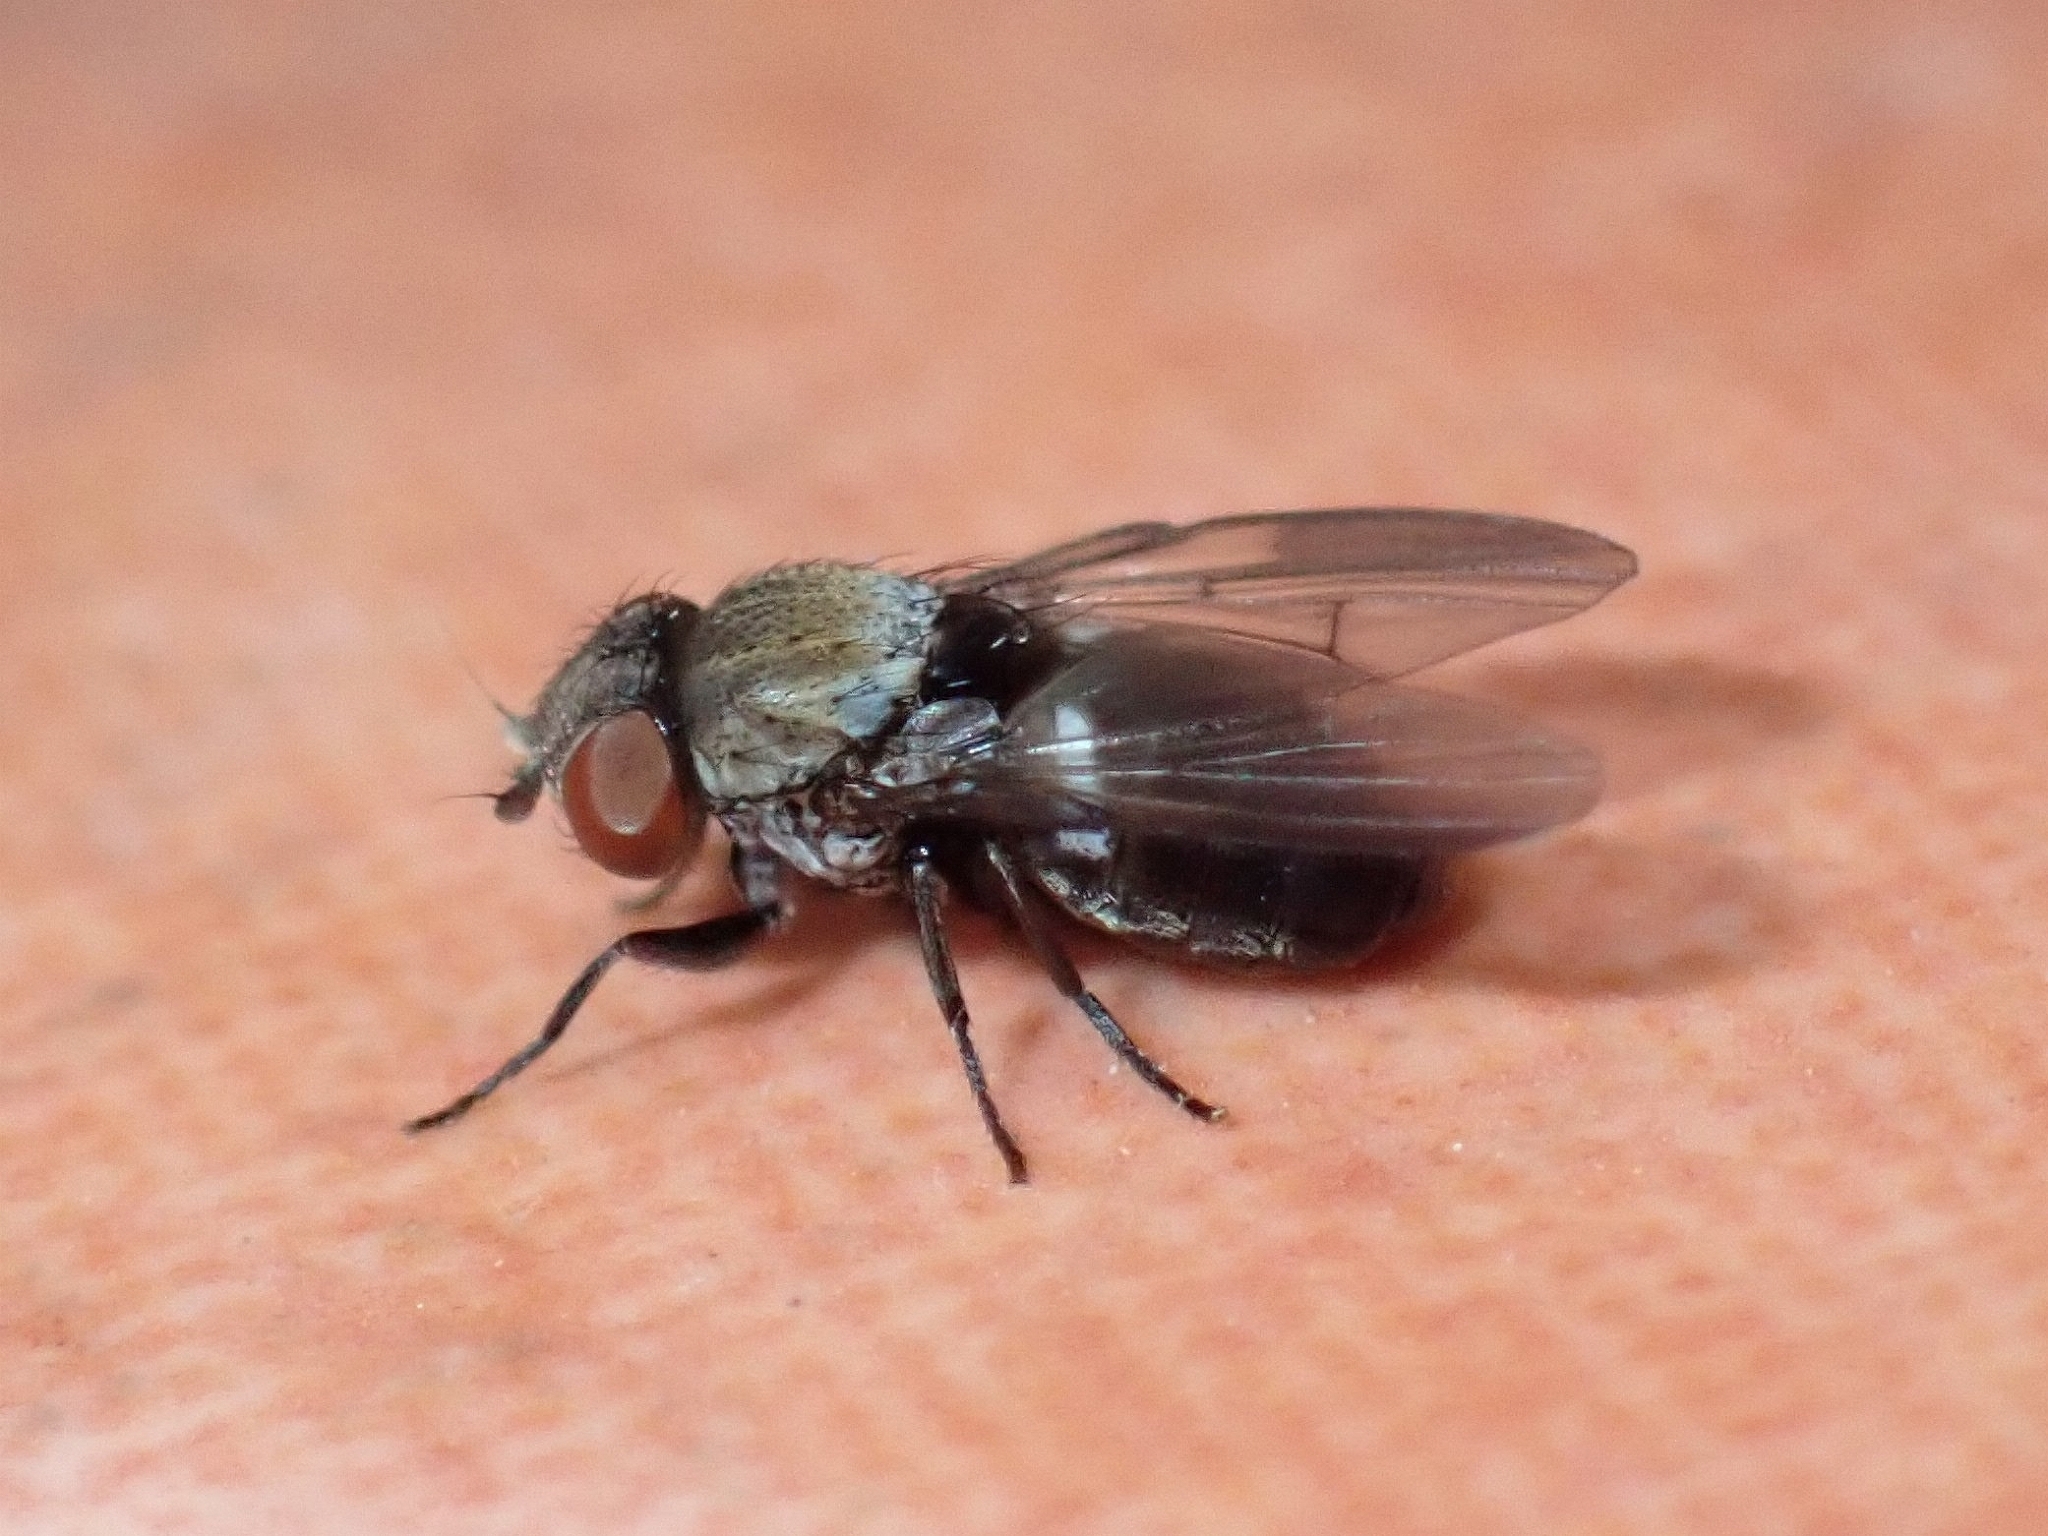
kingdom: Animalia
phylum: Arthropoda
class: Insecta
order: Diptera
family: Milichiidae
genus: Milichia
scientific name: Milichia canariensis
